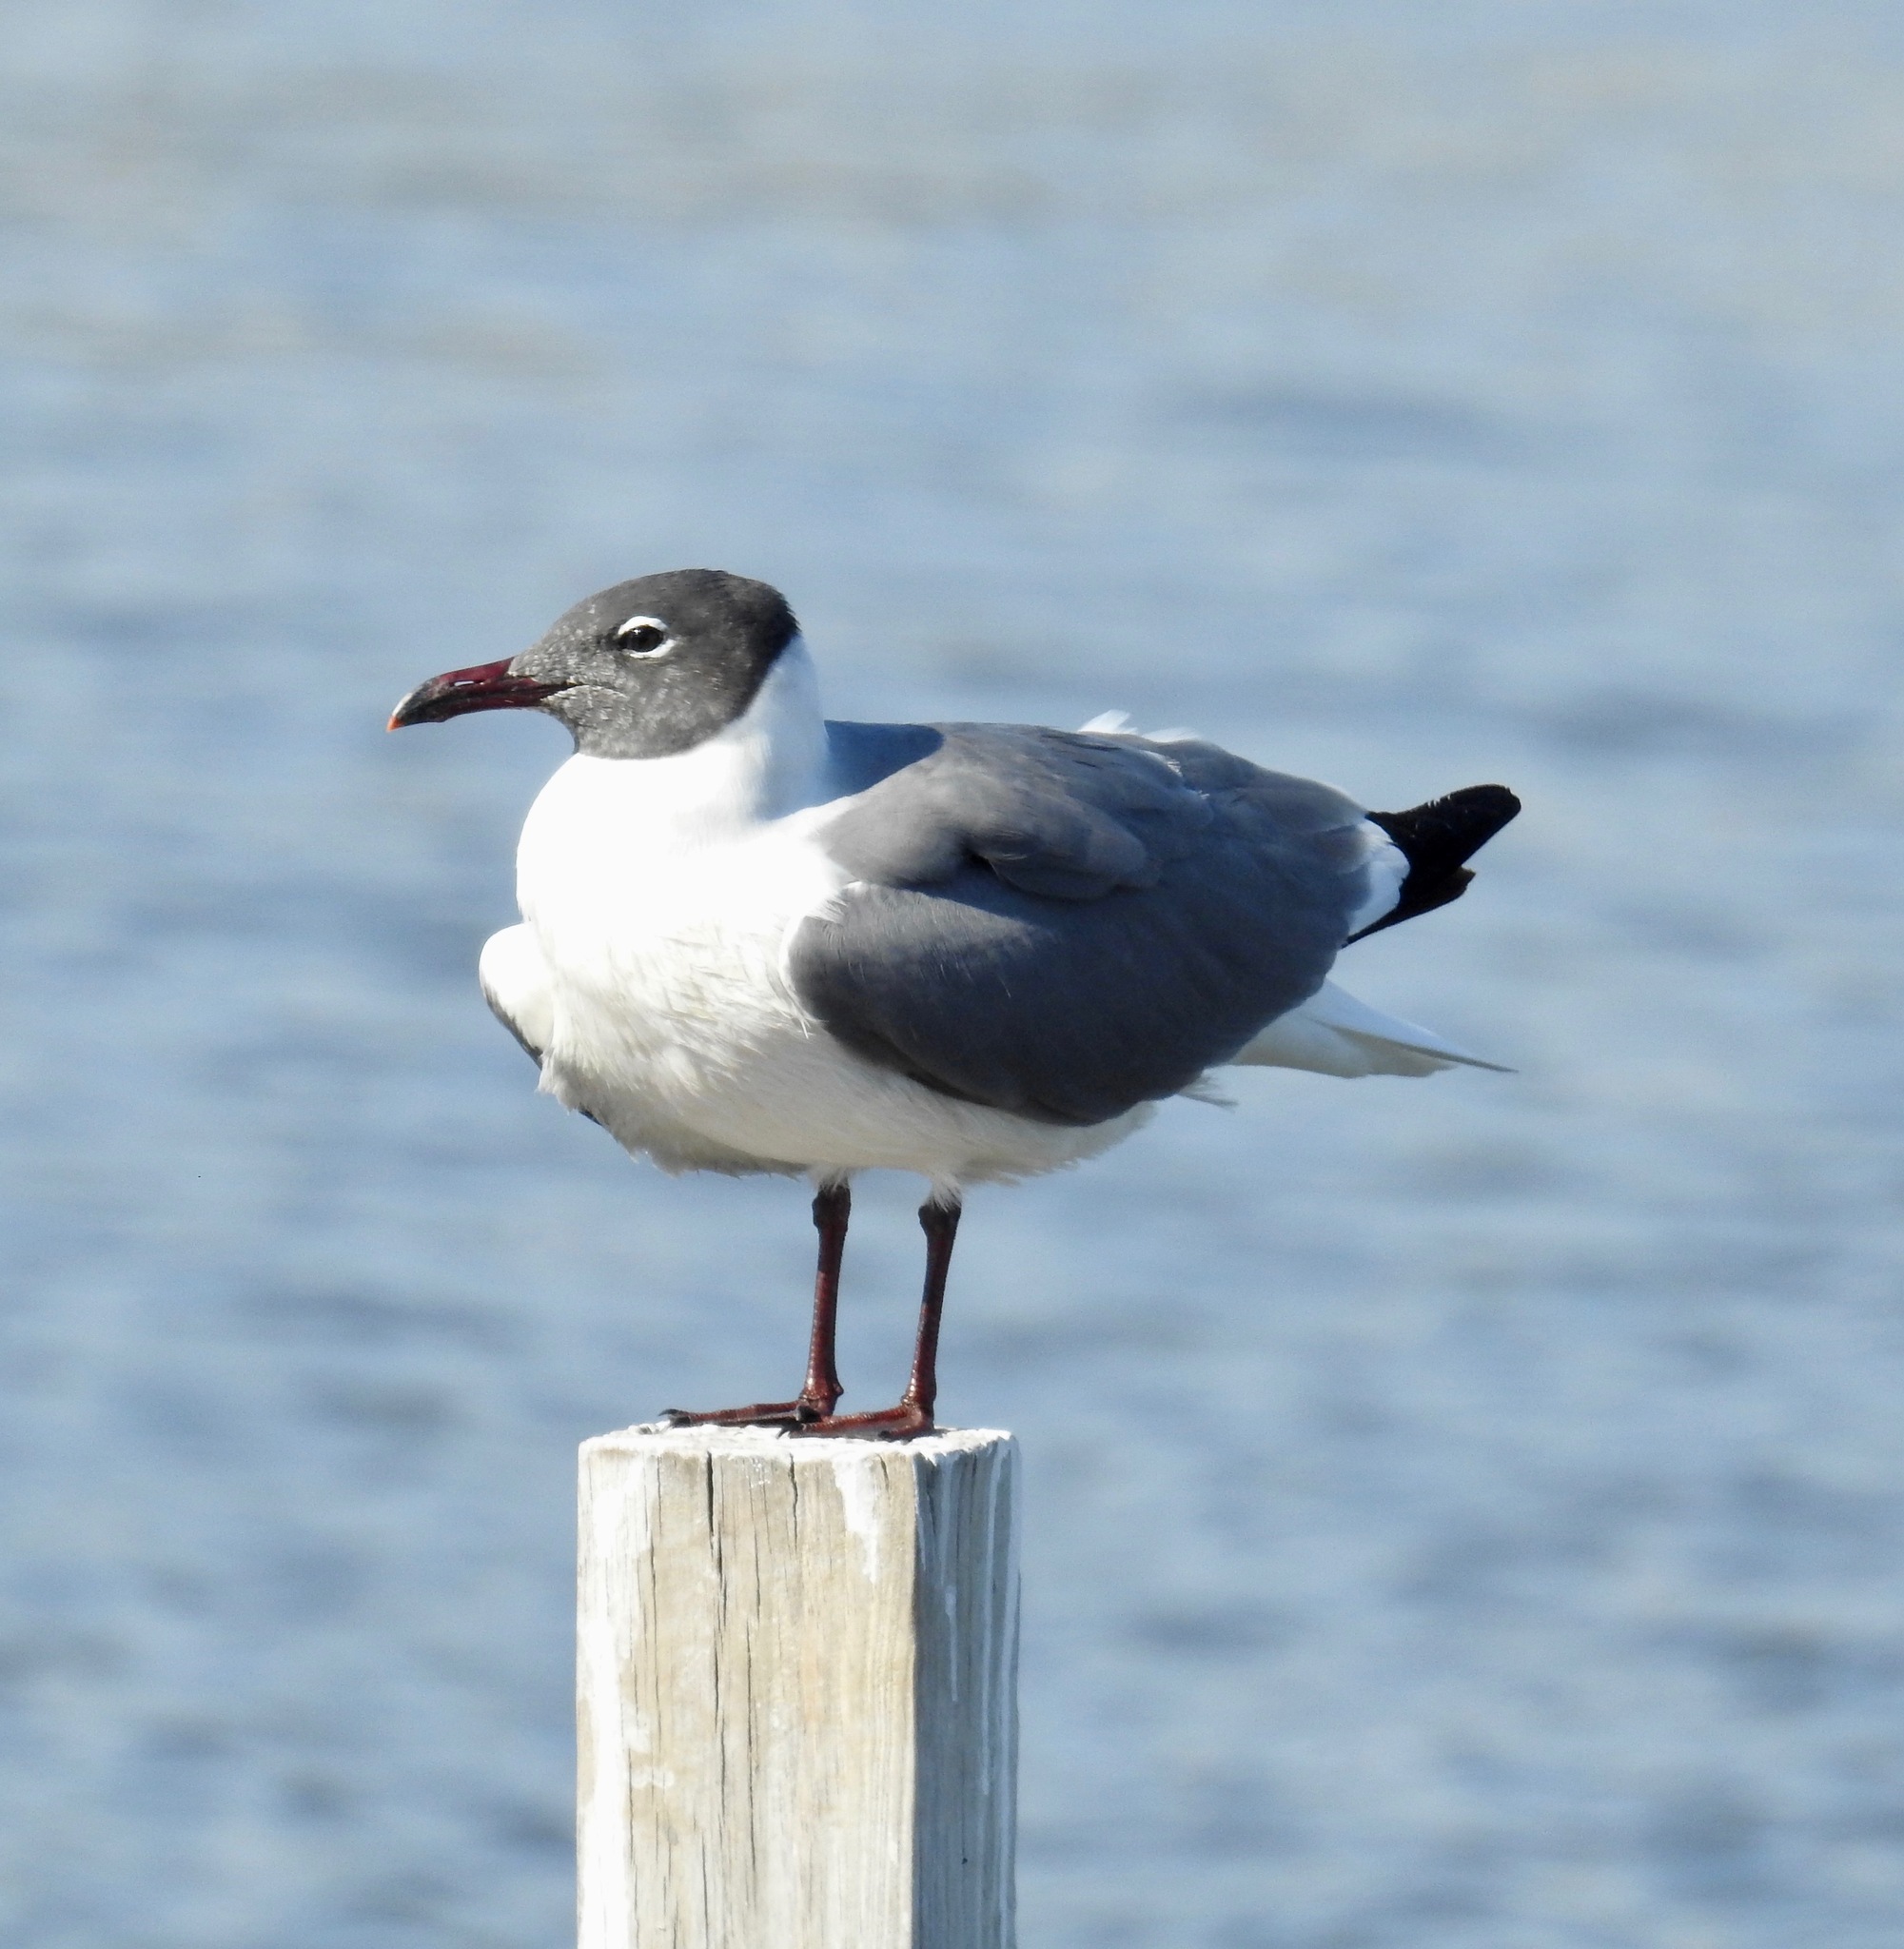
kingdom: Animalia
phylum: Chordata
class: Aves
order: Charadriiformes
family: Laridae
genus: Leucophaeus
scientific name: Leucophaeus atricilla
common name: Laughing gull
